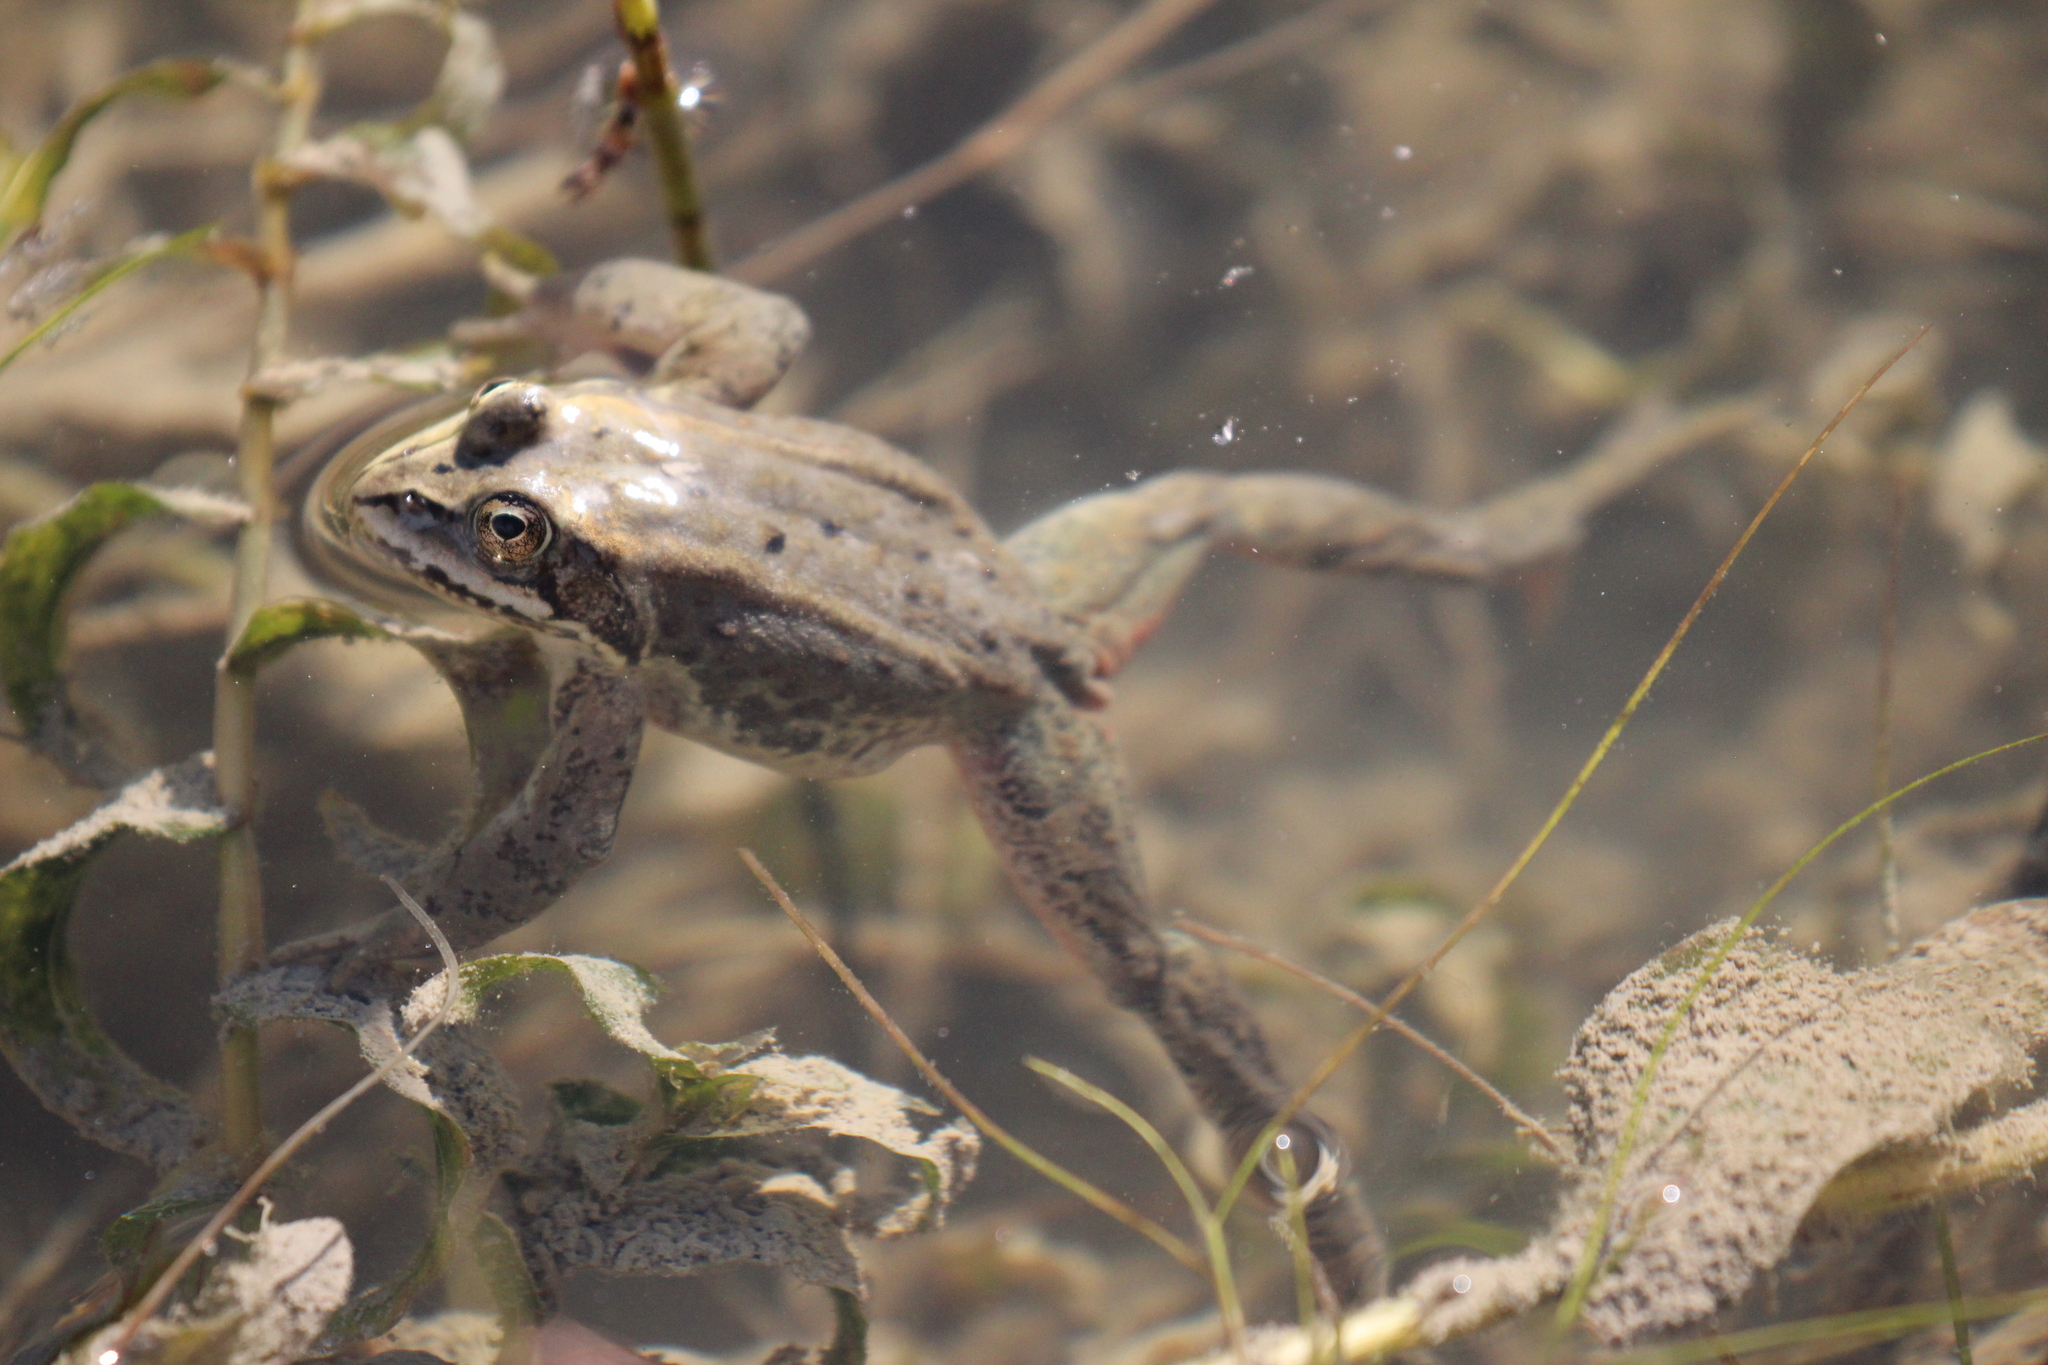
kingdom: Animalia
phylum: Chordata
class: Amphibia
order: Anura
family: Ranidae
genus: Rana
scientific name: Rana luteiventris
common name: Columbia spotted frog
